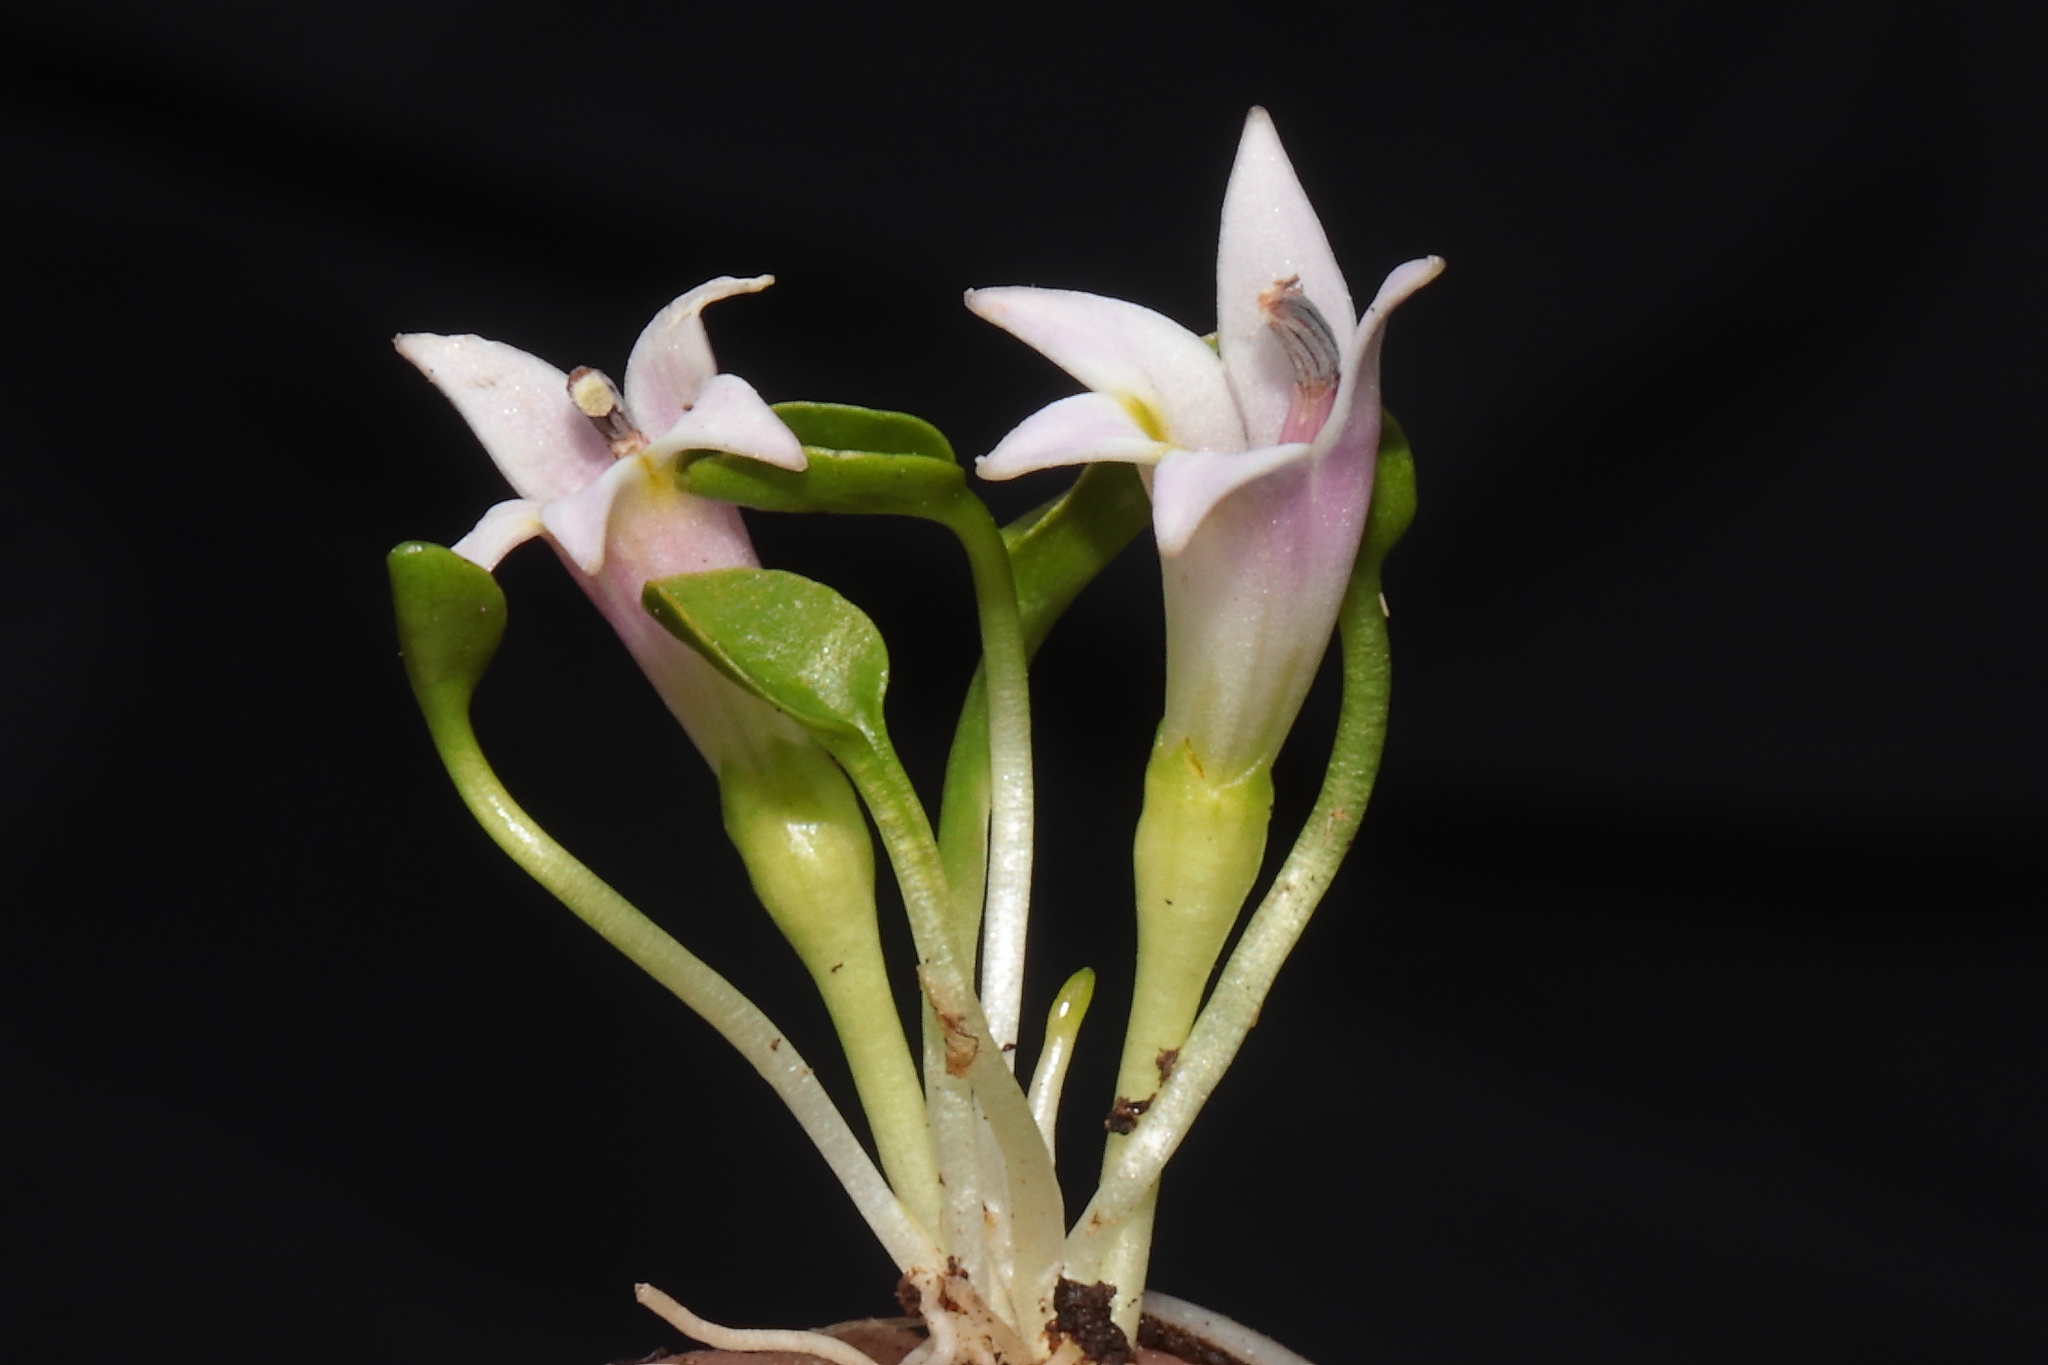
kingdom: Plantae
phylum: Tracheophyta
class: Magnoliopsida
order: Asterales
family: Campanulaceae
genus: Lobelia
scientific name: Lobelia oligophylla
